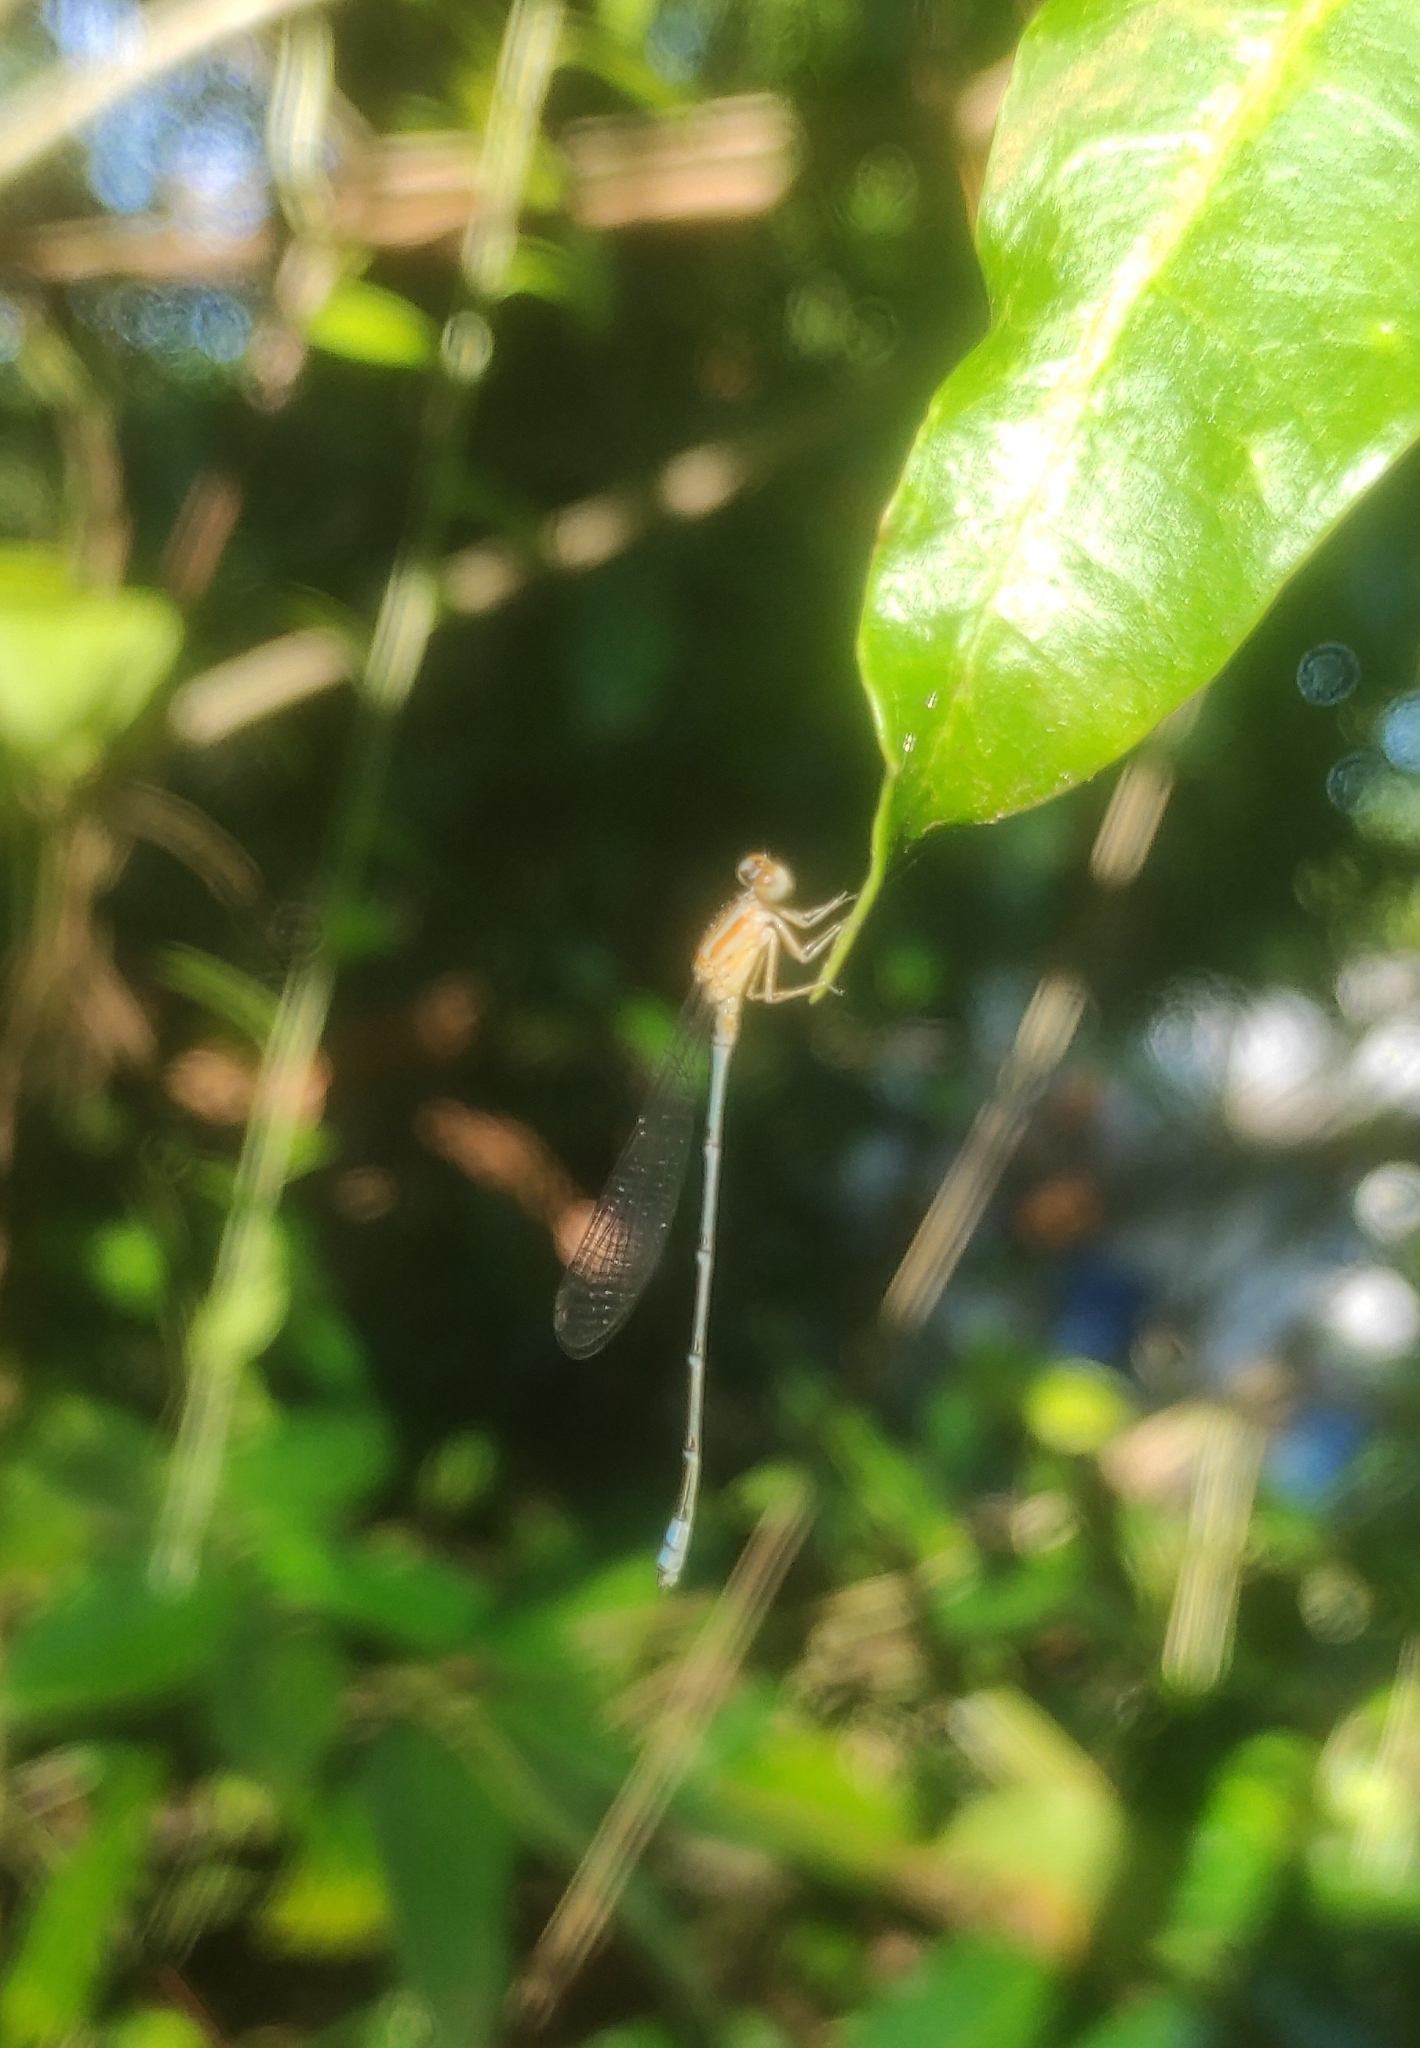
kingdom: Animalia
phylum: Arthropoda
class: Insecta
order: Odonata
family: Coenagrionidae
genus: Pseudagrion
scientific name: Pseudagrion microcephalum
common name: Blue riverdamsel
